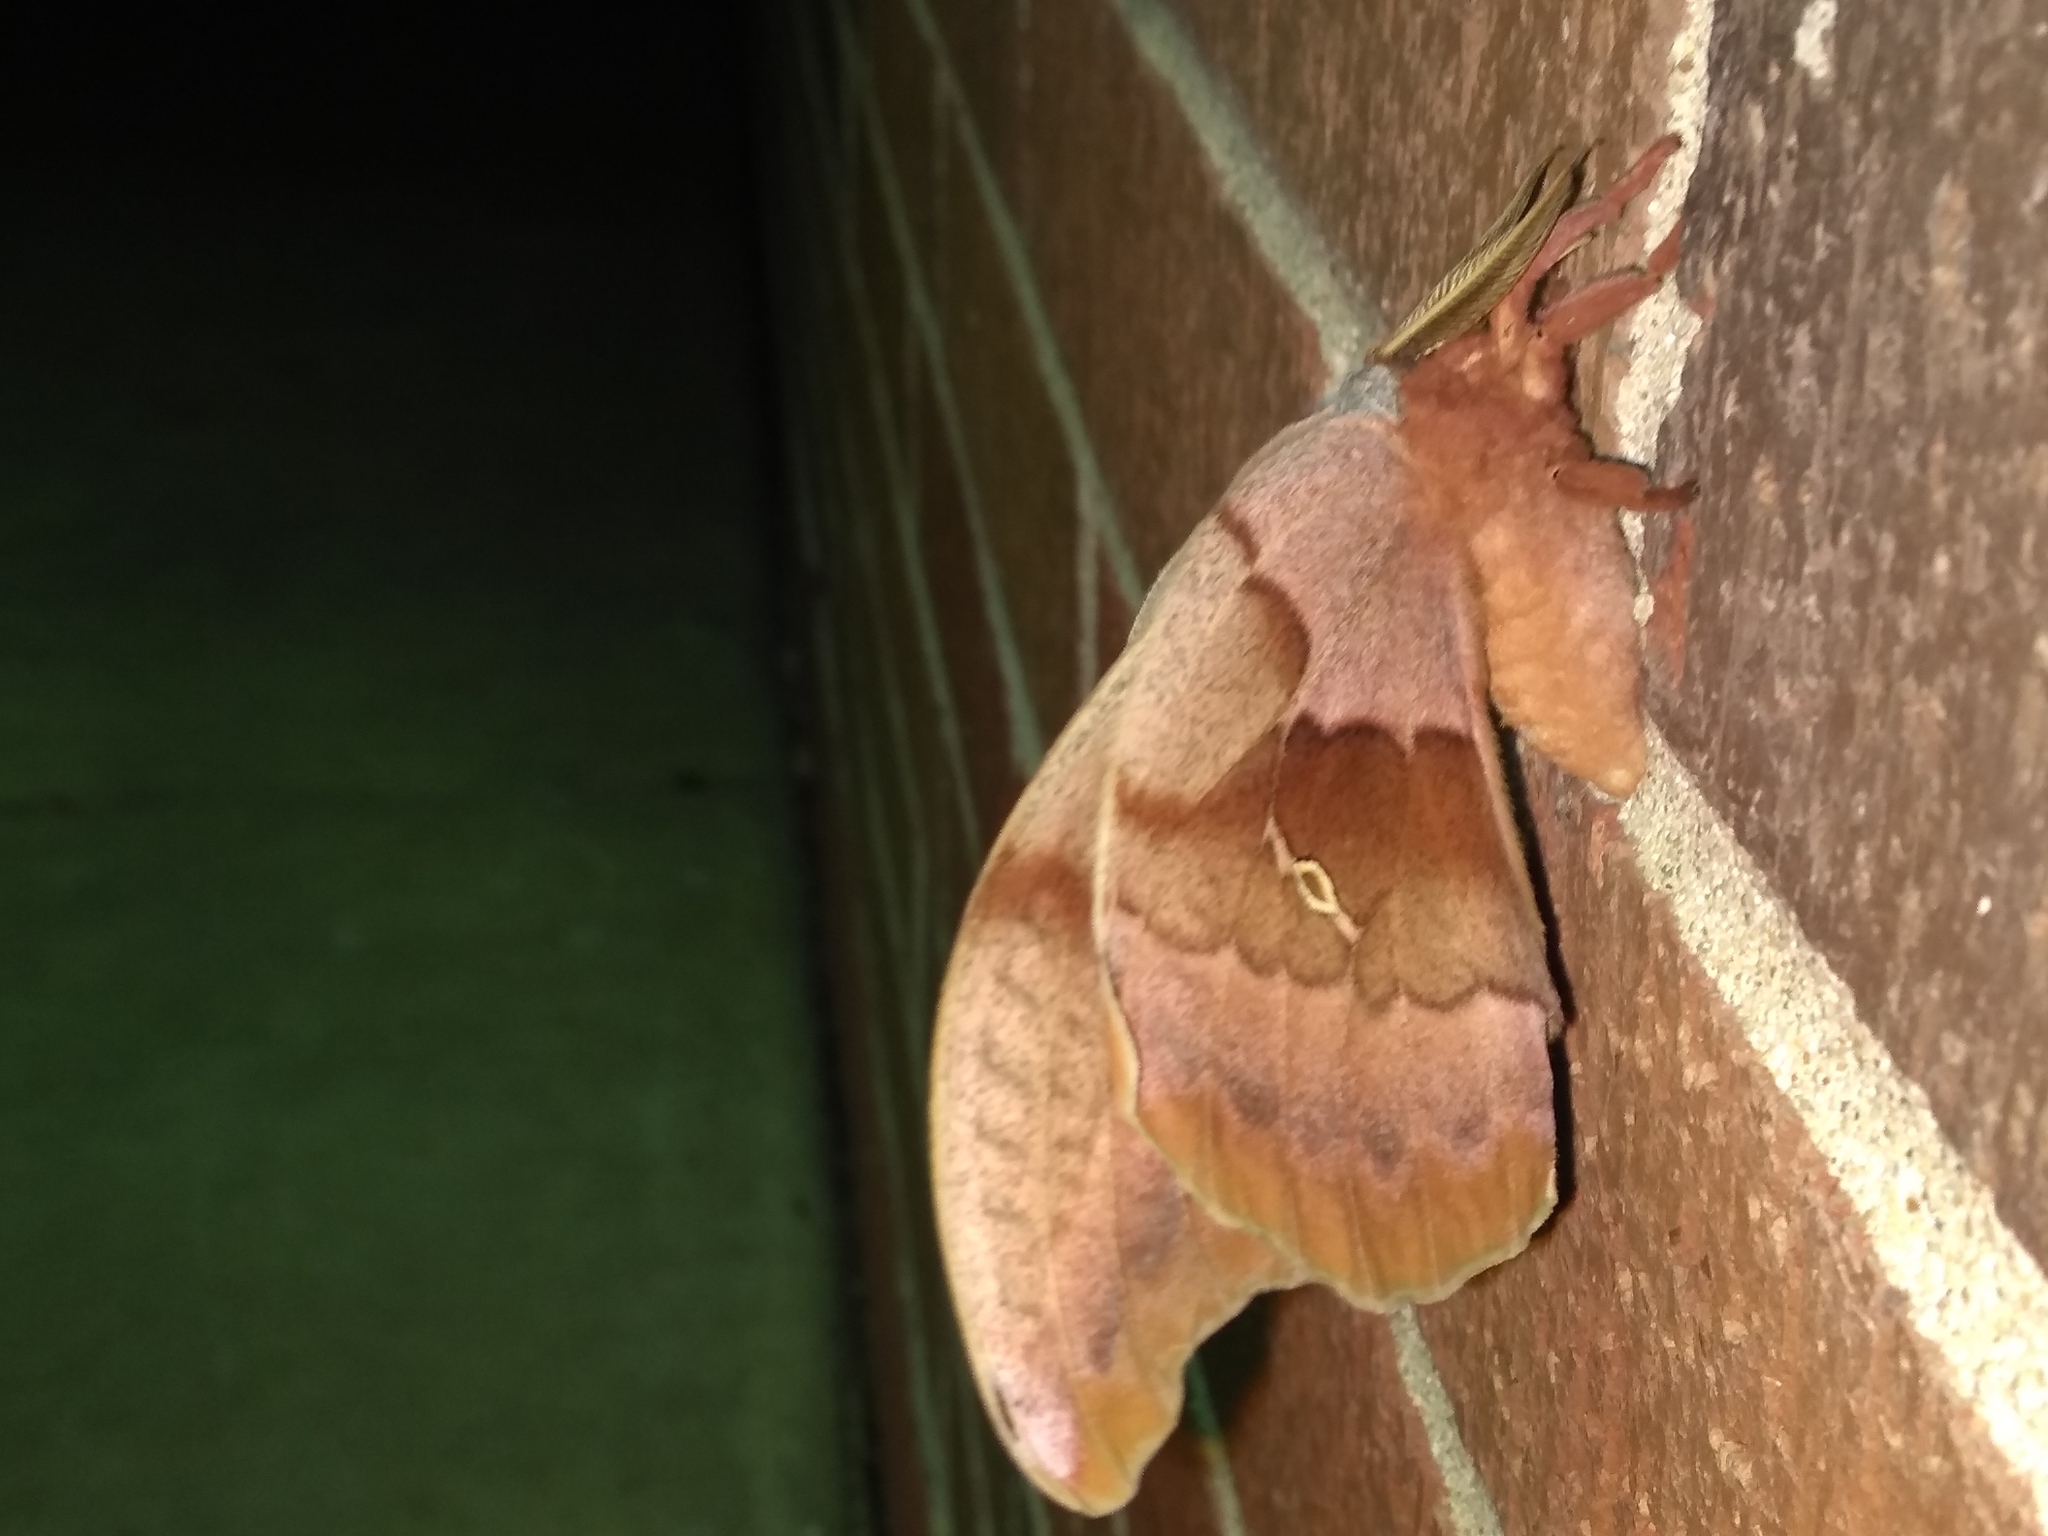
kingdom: Animalia
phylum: Arthropoda
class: Insecta
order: Lepidoptera
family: Saturniidae
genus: Antheraea
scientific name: Antheraea polyphemus
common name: Polyphemus moth
